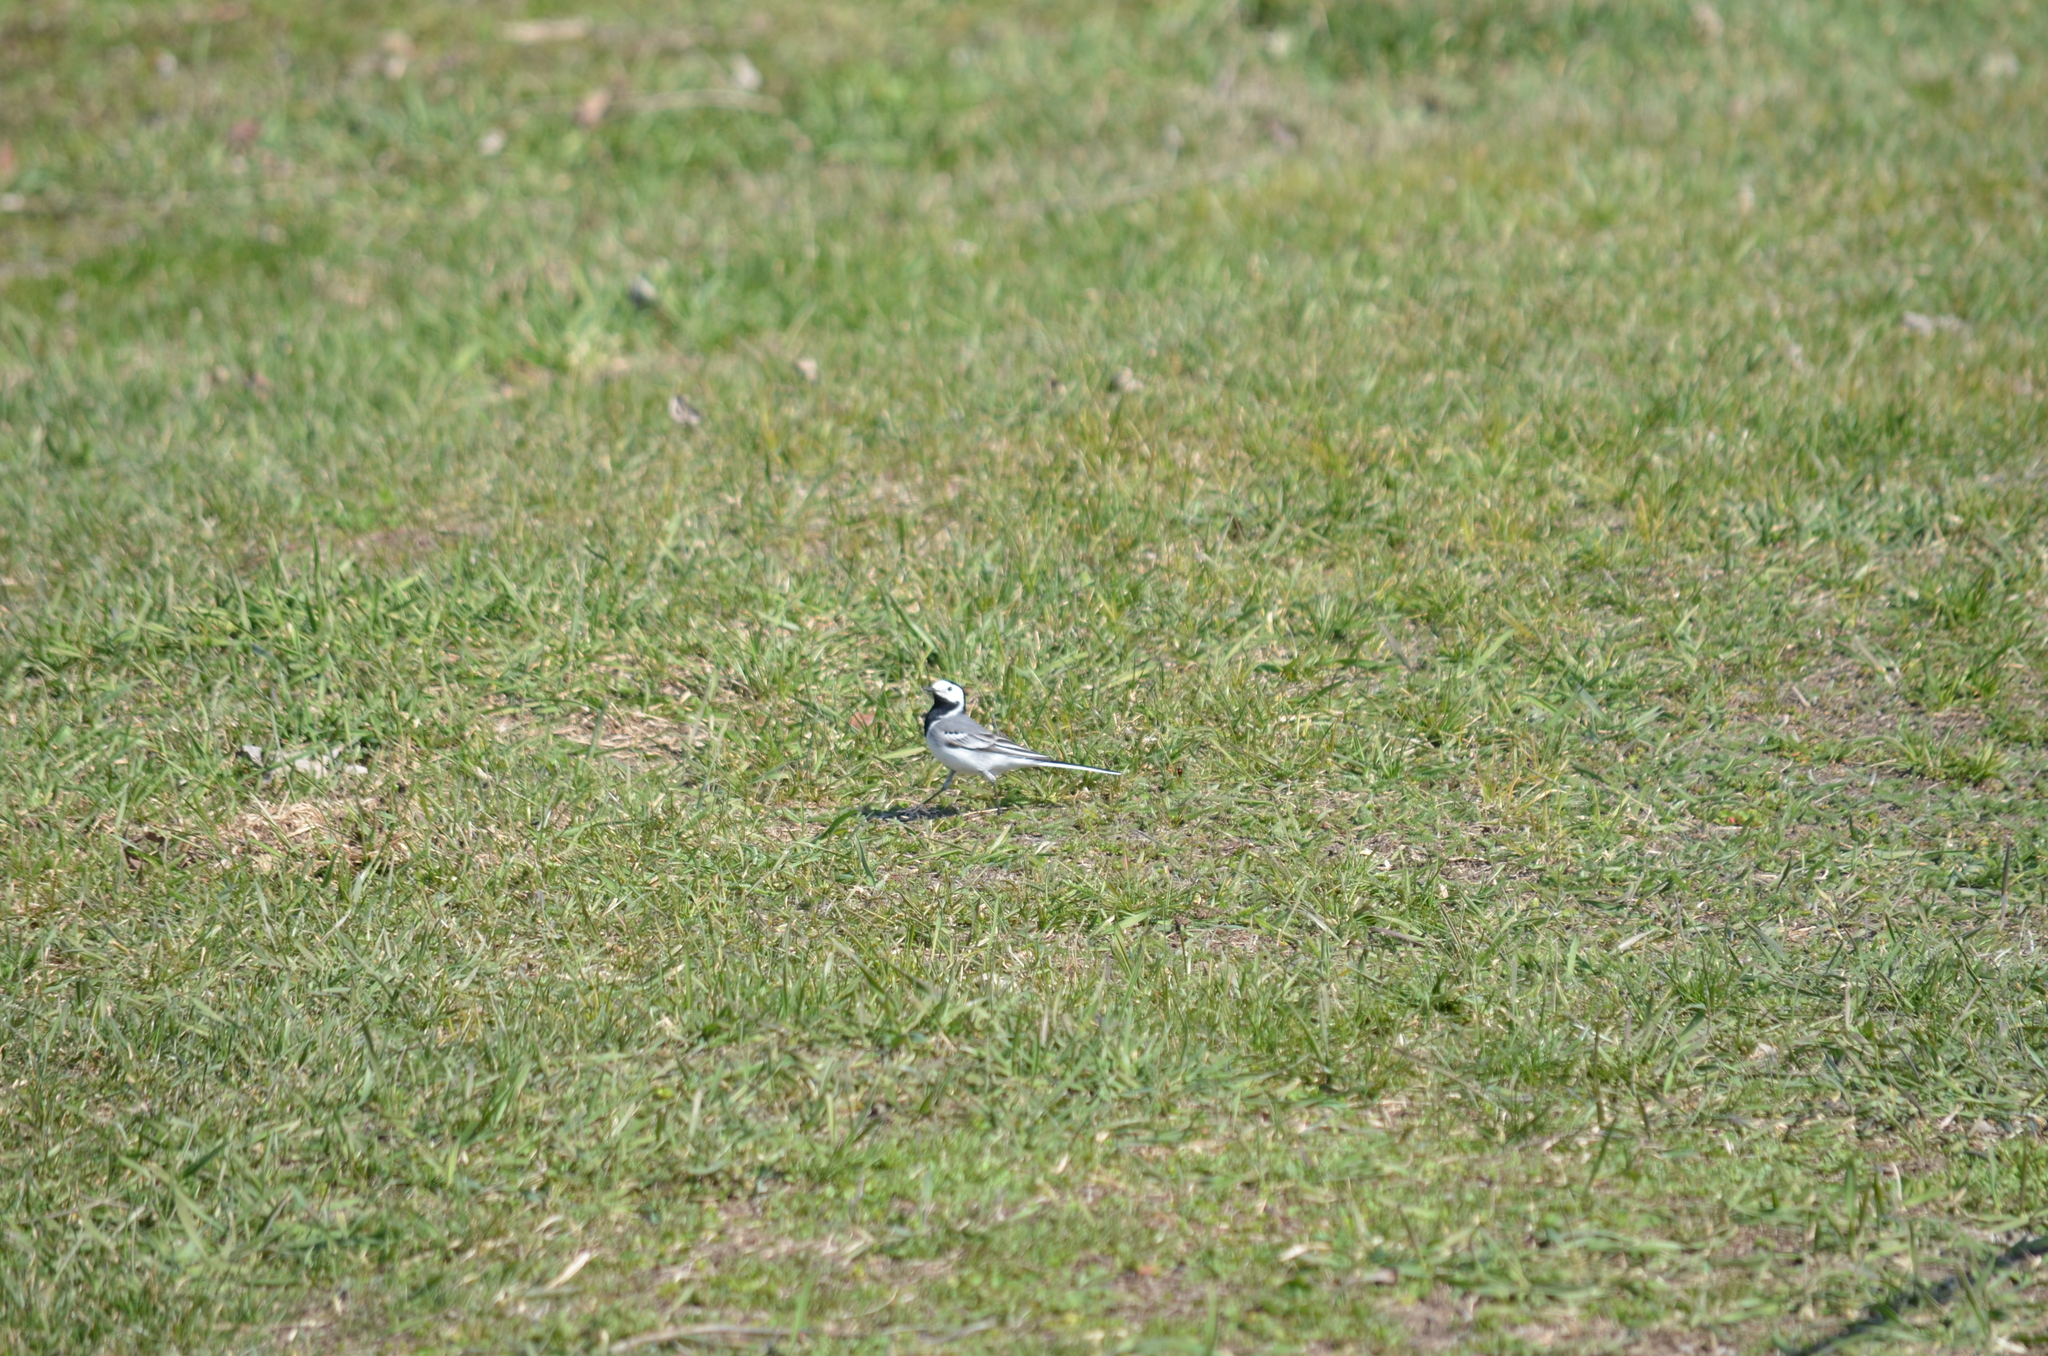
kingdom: Animalia
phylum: Chordata
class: Aves
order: Passeriformes
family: Motacillidae
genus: Motacilla
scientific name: Motacilla alba
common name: White wagtail
